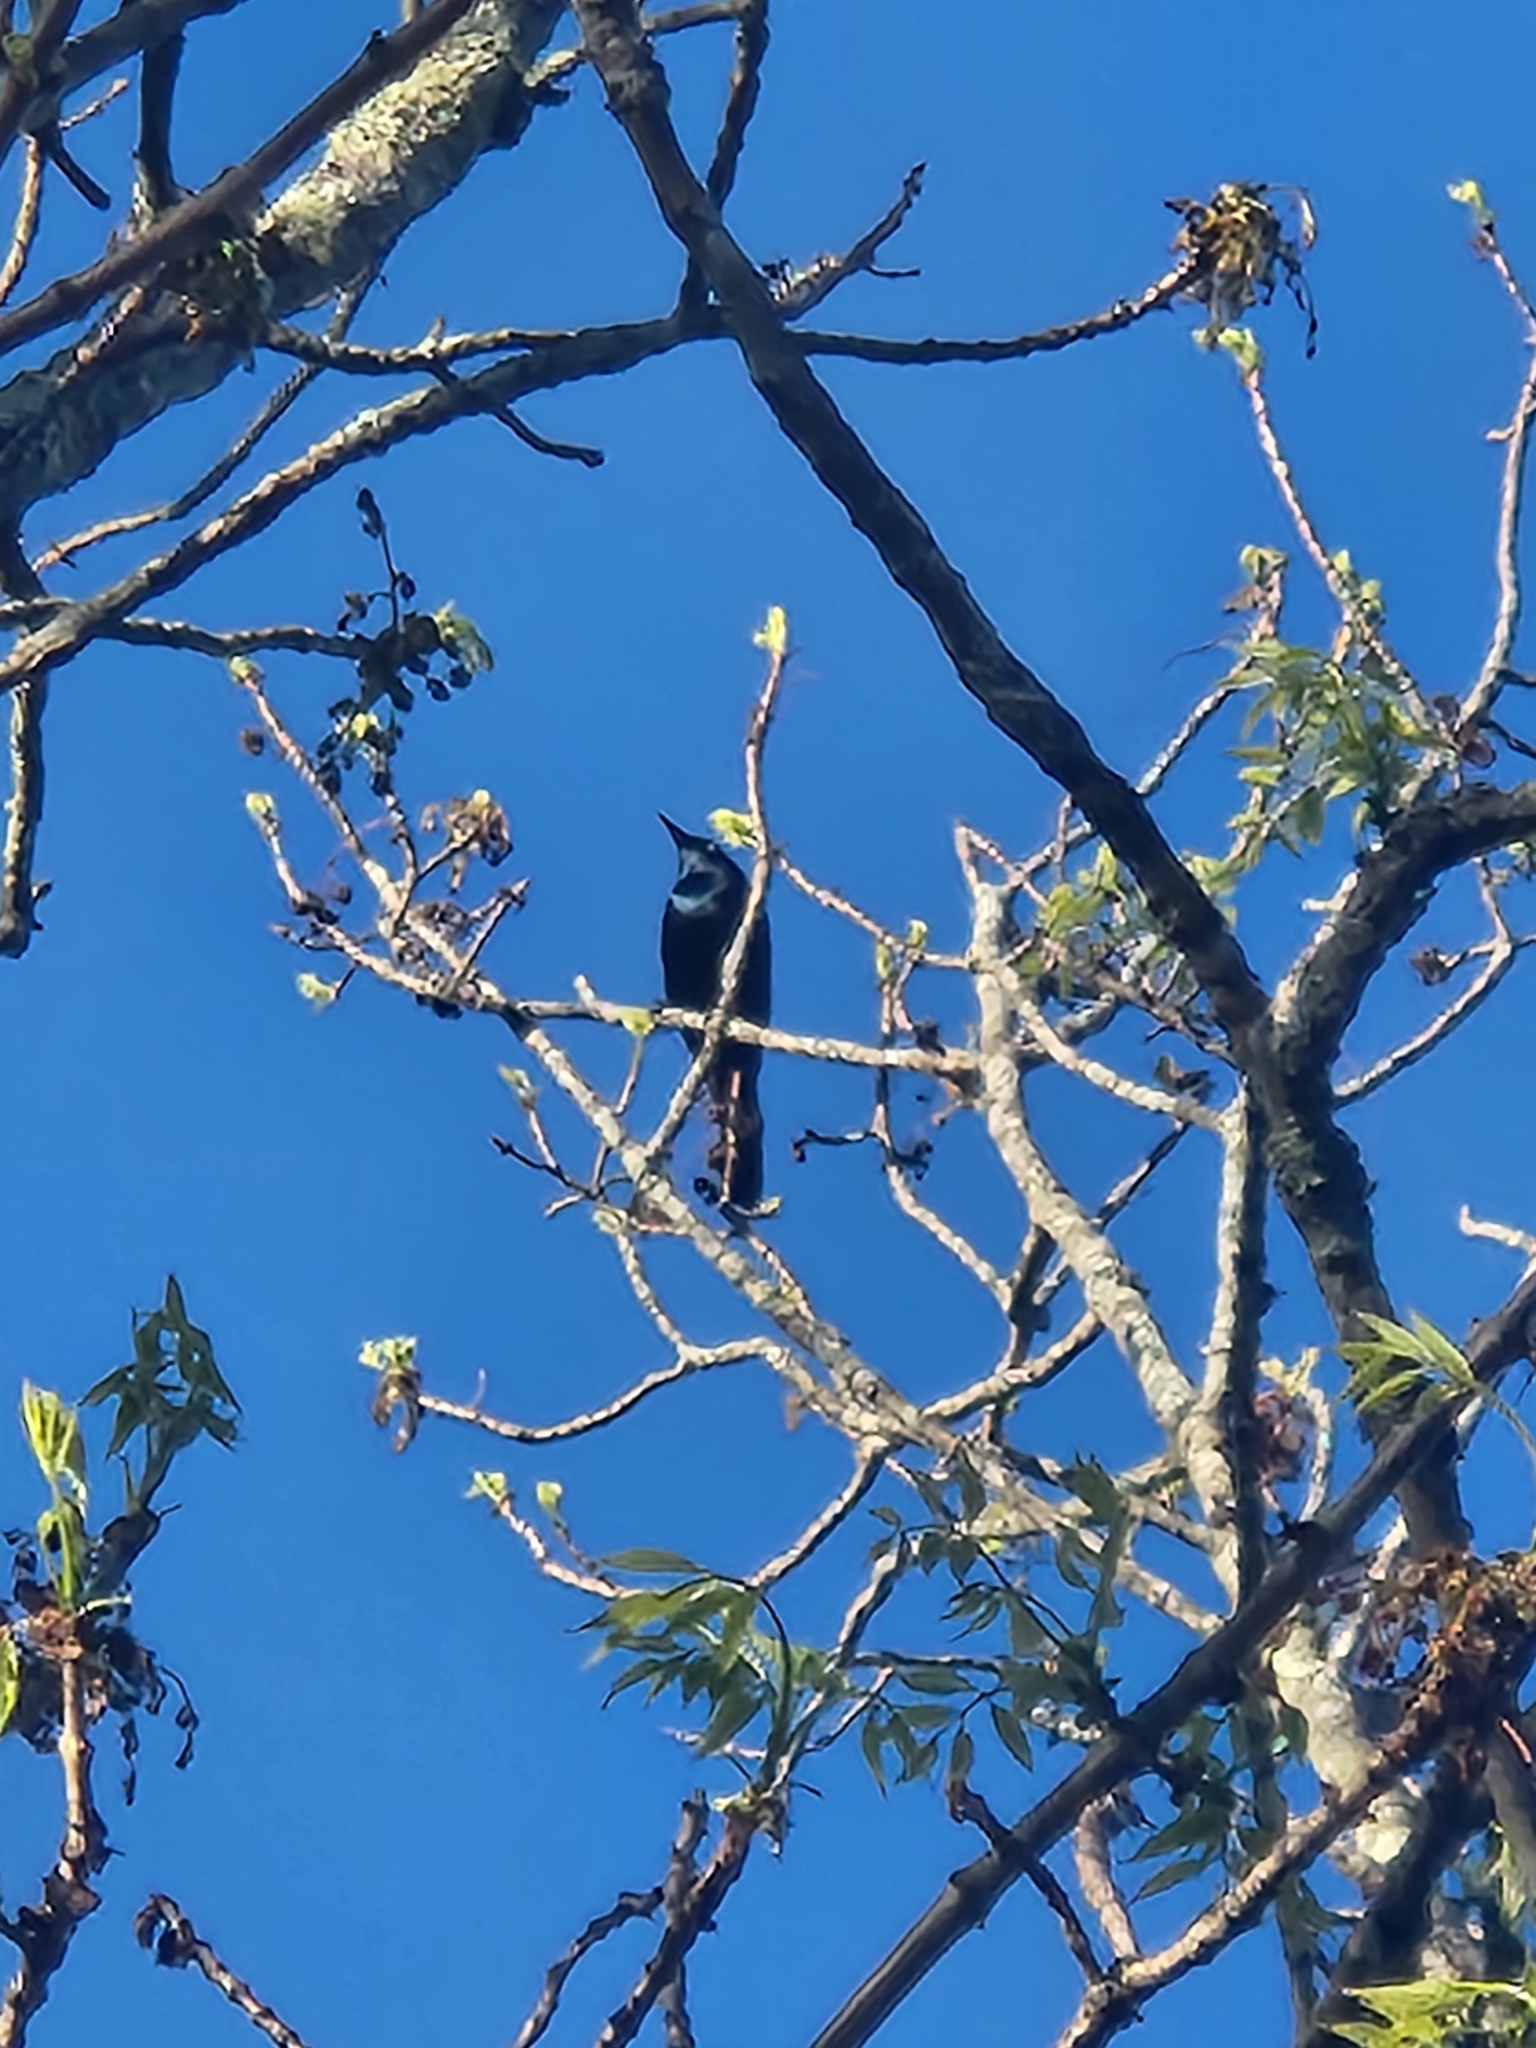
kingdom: Animalia
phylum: Chordata
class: Aves
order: Passeriformes
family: Icteridae
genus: Quiscalus
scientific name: Quiscalus quiscula
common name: Common grackle
